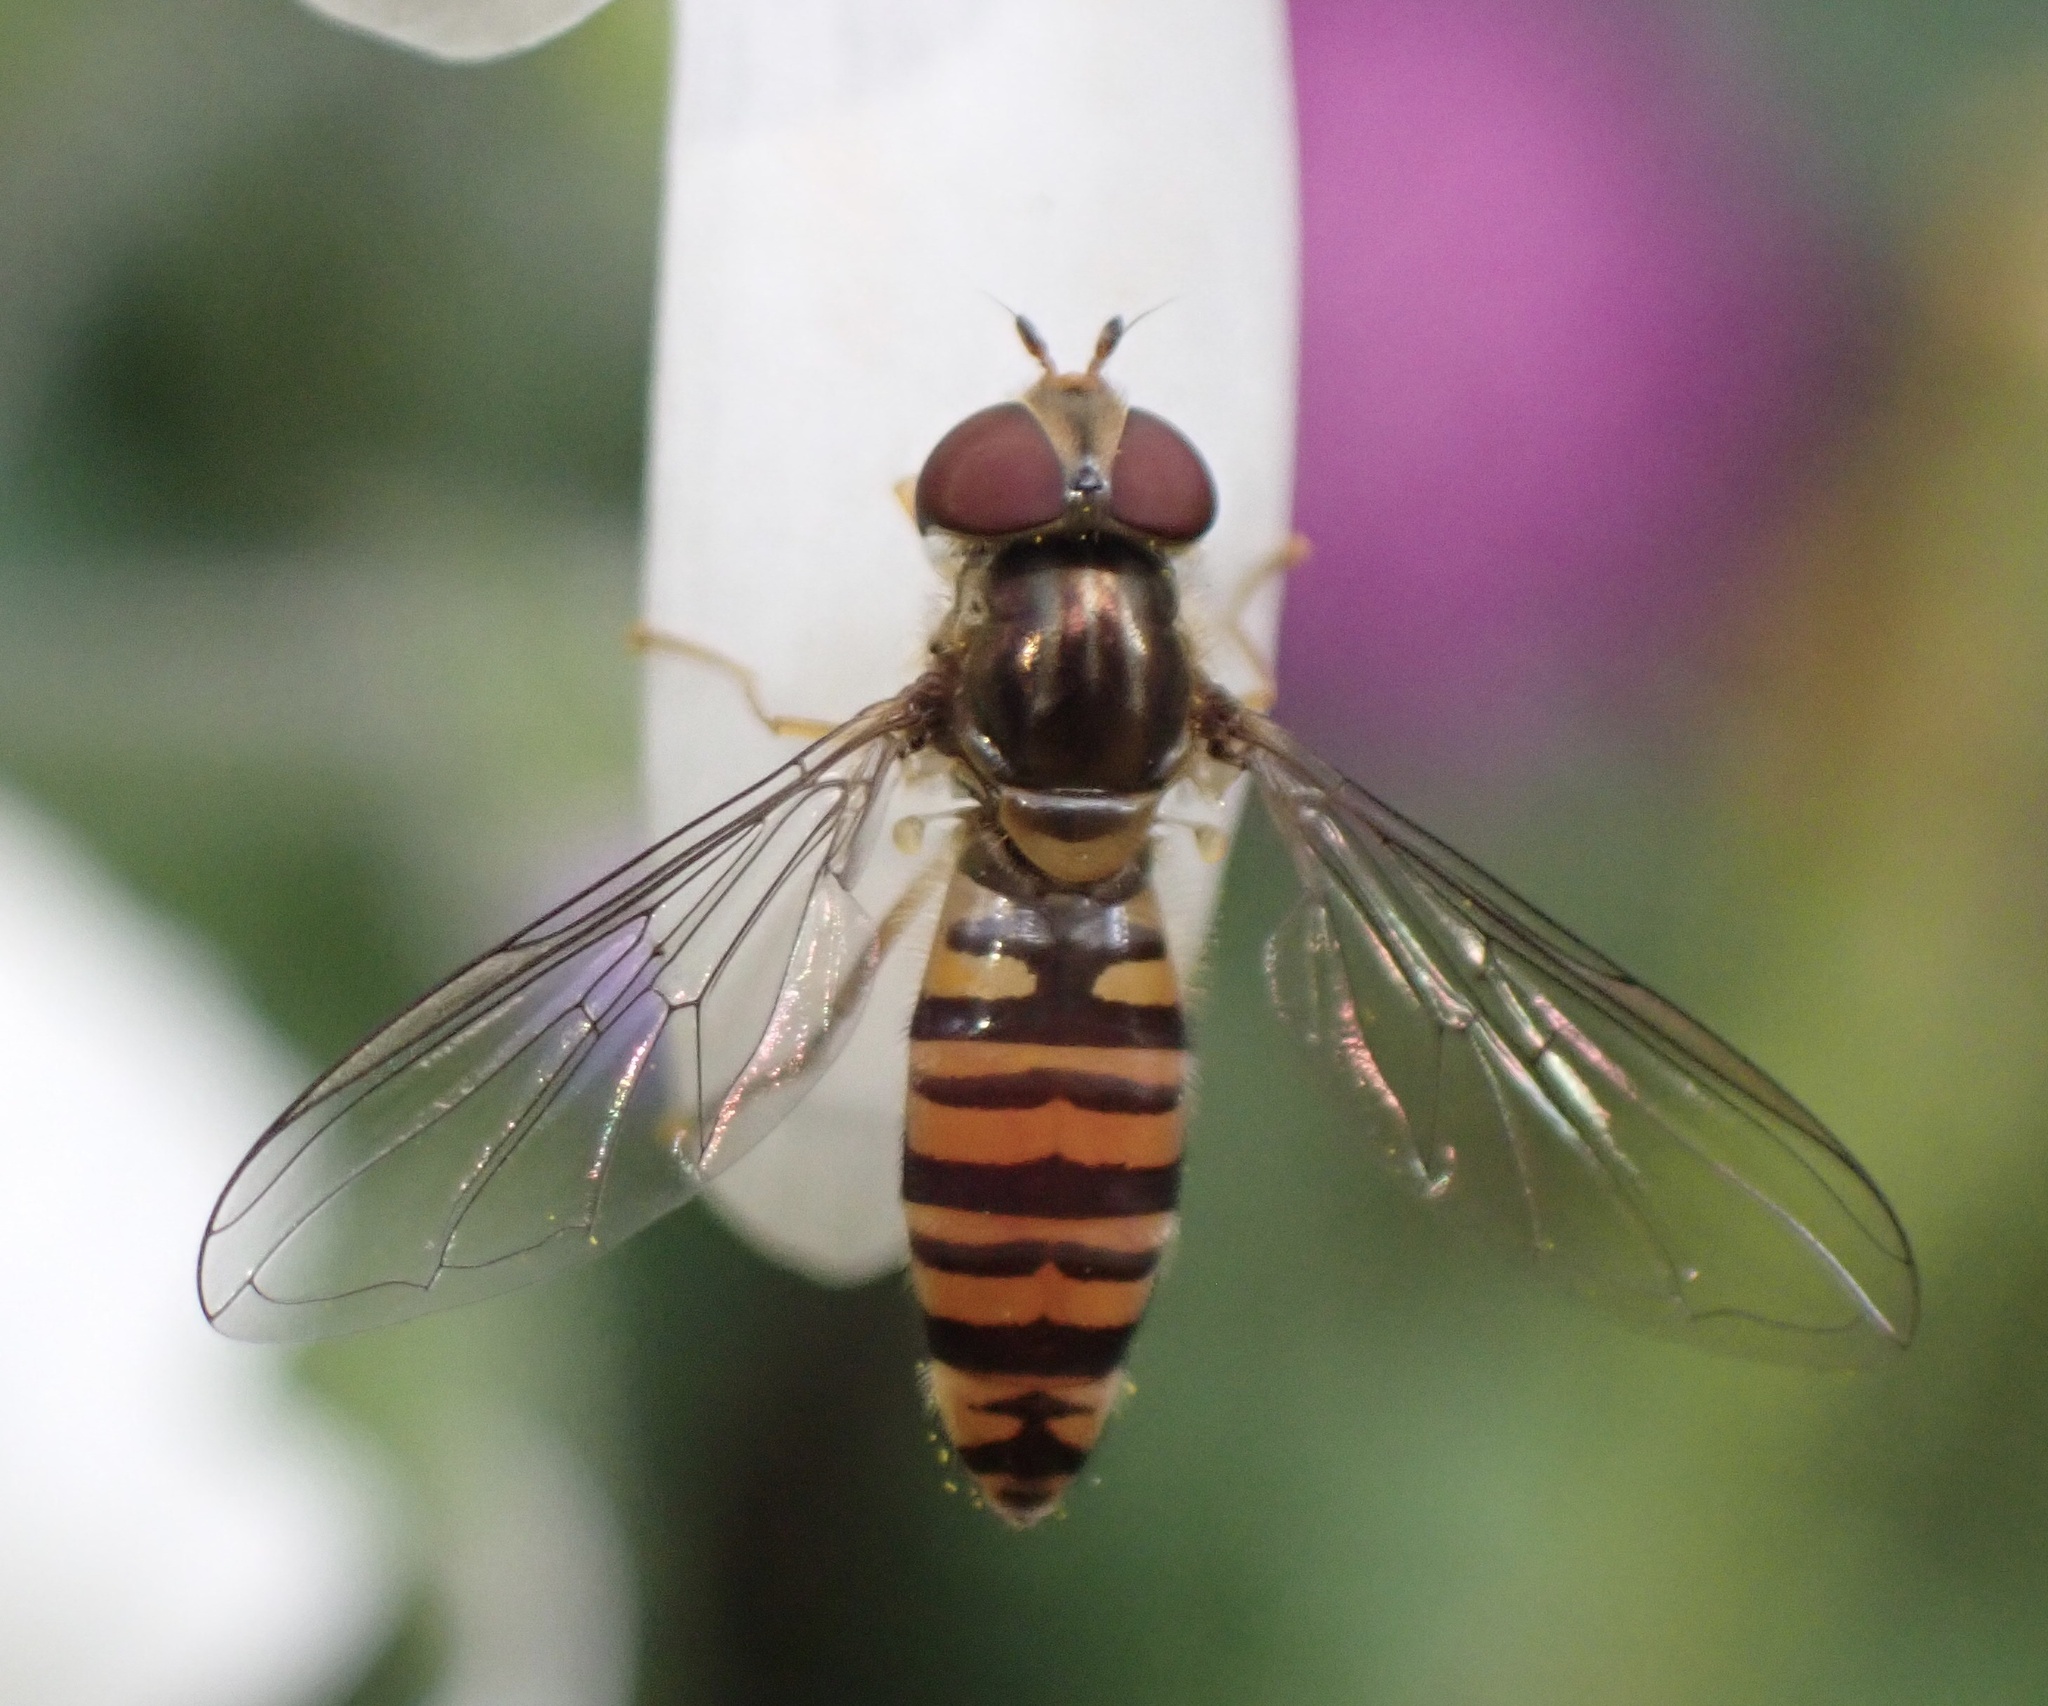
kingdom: Animalia
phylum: Arthropoda
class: Insecta
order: Diptera
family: Syrphidae
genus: Episyrphus
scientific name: Episyrphus balteatus
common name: Marmalade hoverfly
